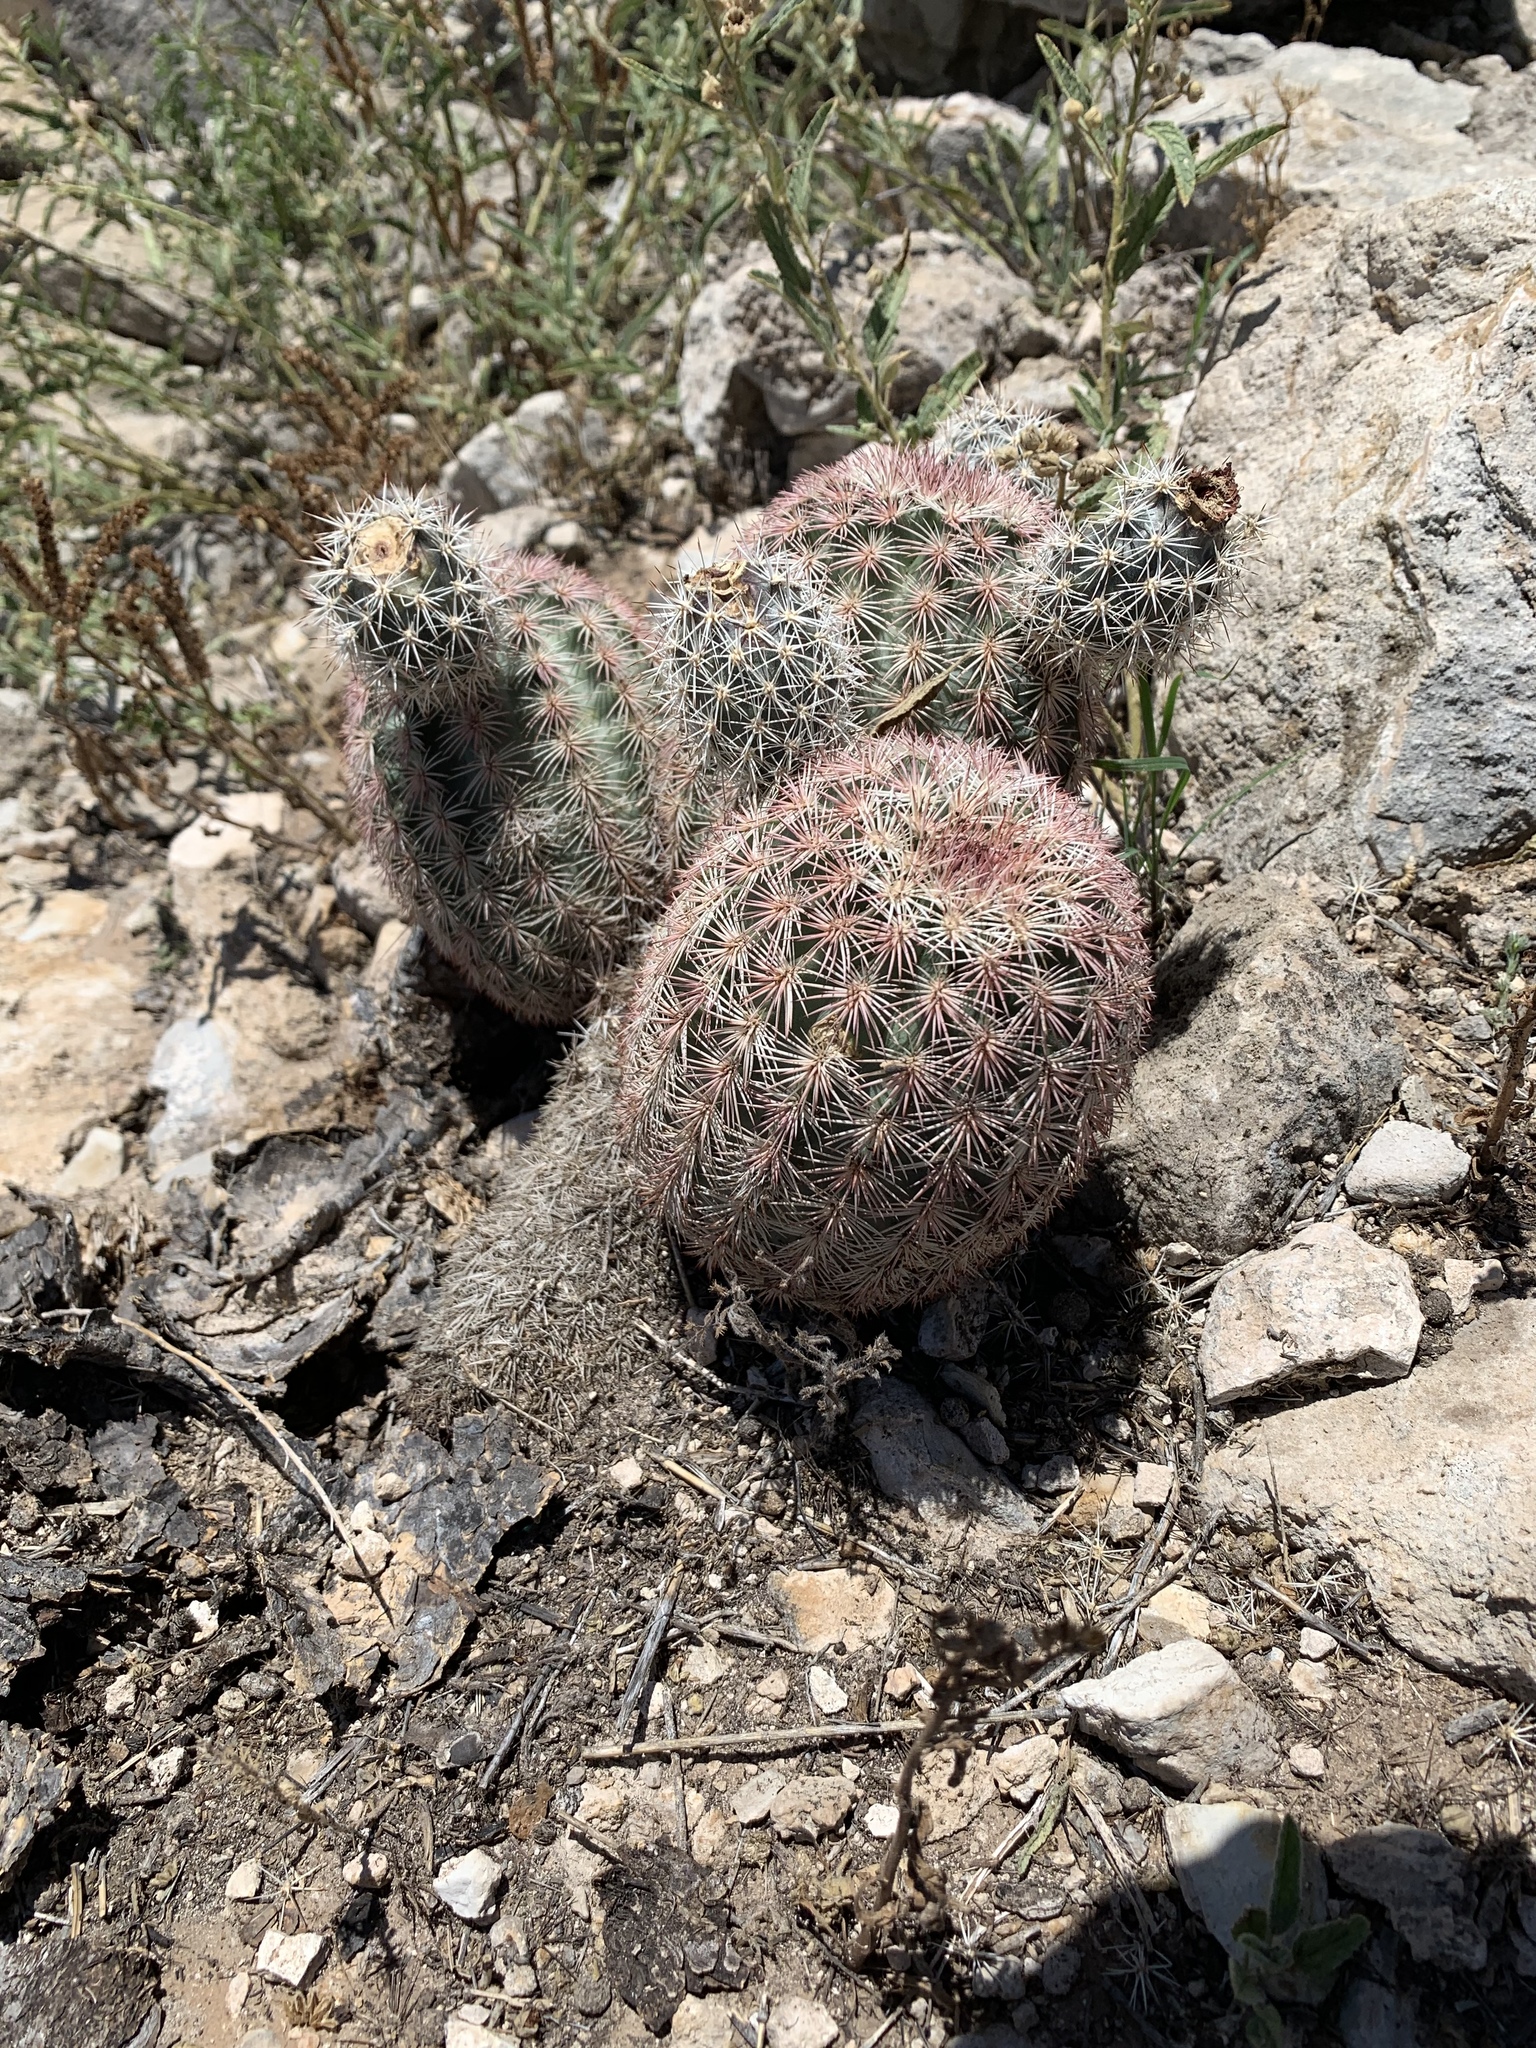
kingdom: Plantae
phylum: Tracheophyta
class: Magnoliopsida
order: Caryophyllales
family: Cactaceae
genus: Echinocereus
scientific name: Echinocereus dasyacanthus
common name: Spiny hedgehog cactus
